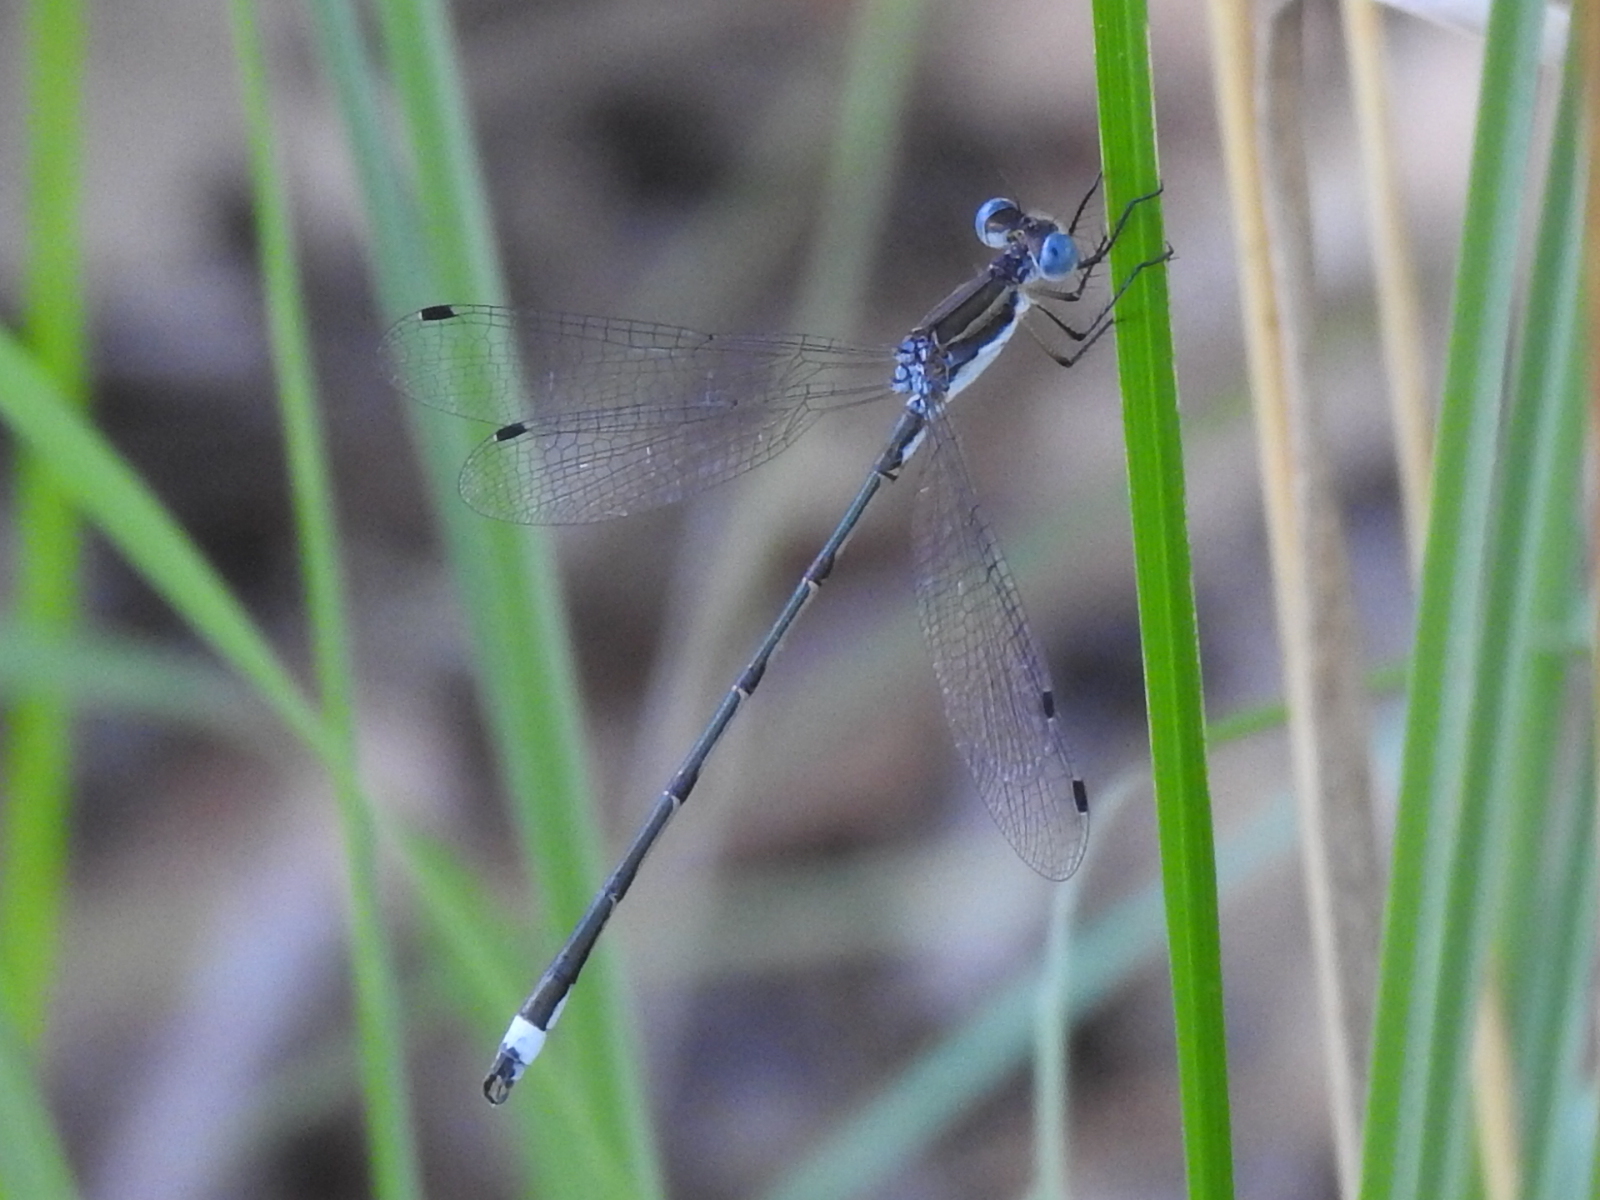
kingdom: Animalia
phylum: Arthropoda
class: Insecta
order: Odonata
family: Lestidae
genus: Lestes
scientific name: Lestes australis
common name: Southern spreadwing
